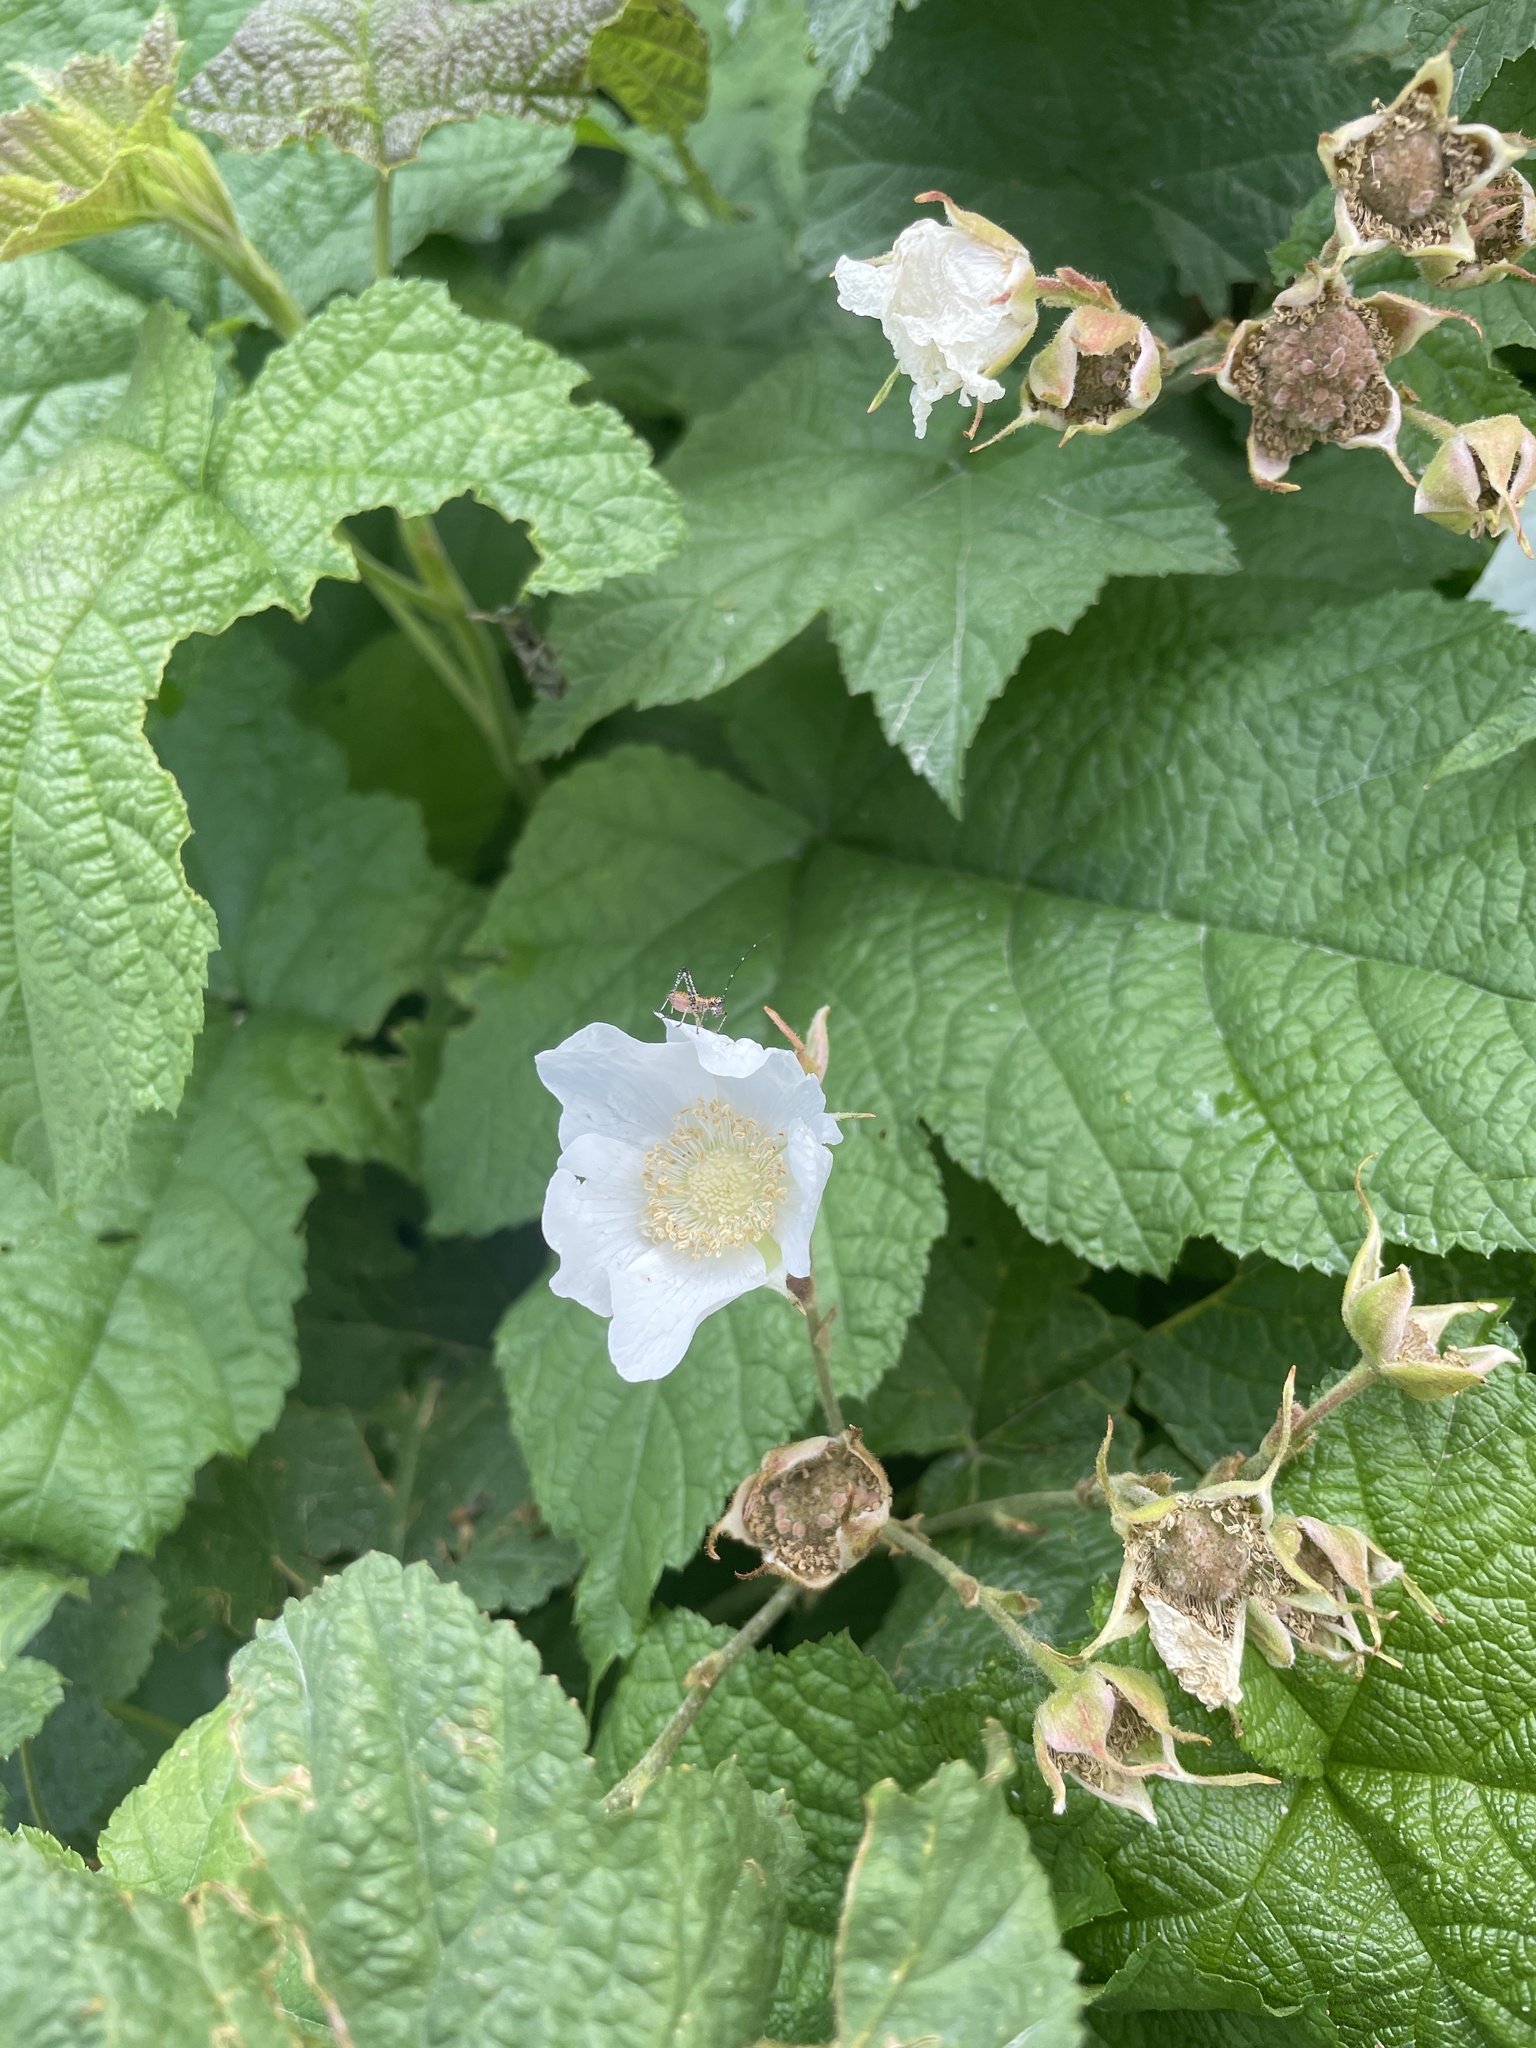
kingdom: Plantae
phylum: Tracheophyta
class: Magnoliopsida
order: Rosales
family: Rosaceae
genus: Rubus
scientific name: Rubus parviflorus
